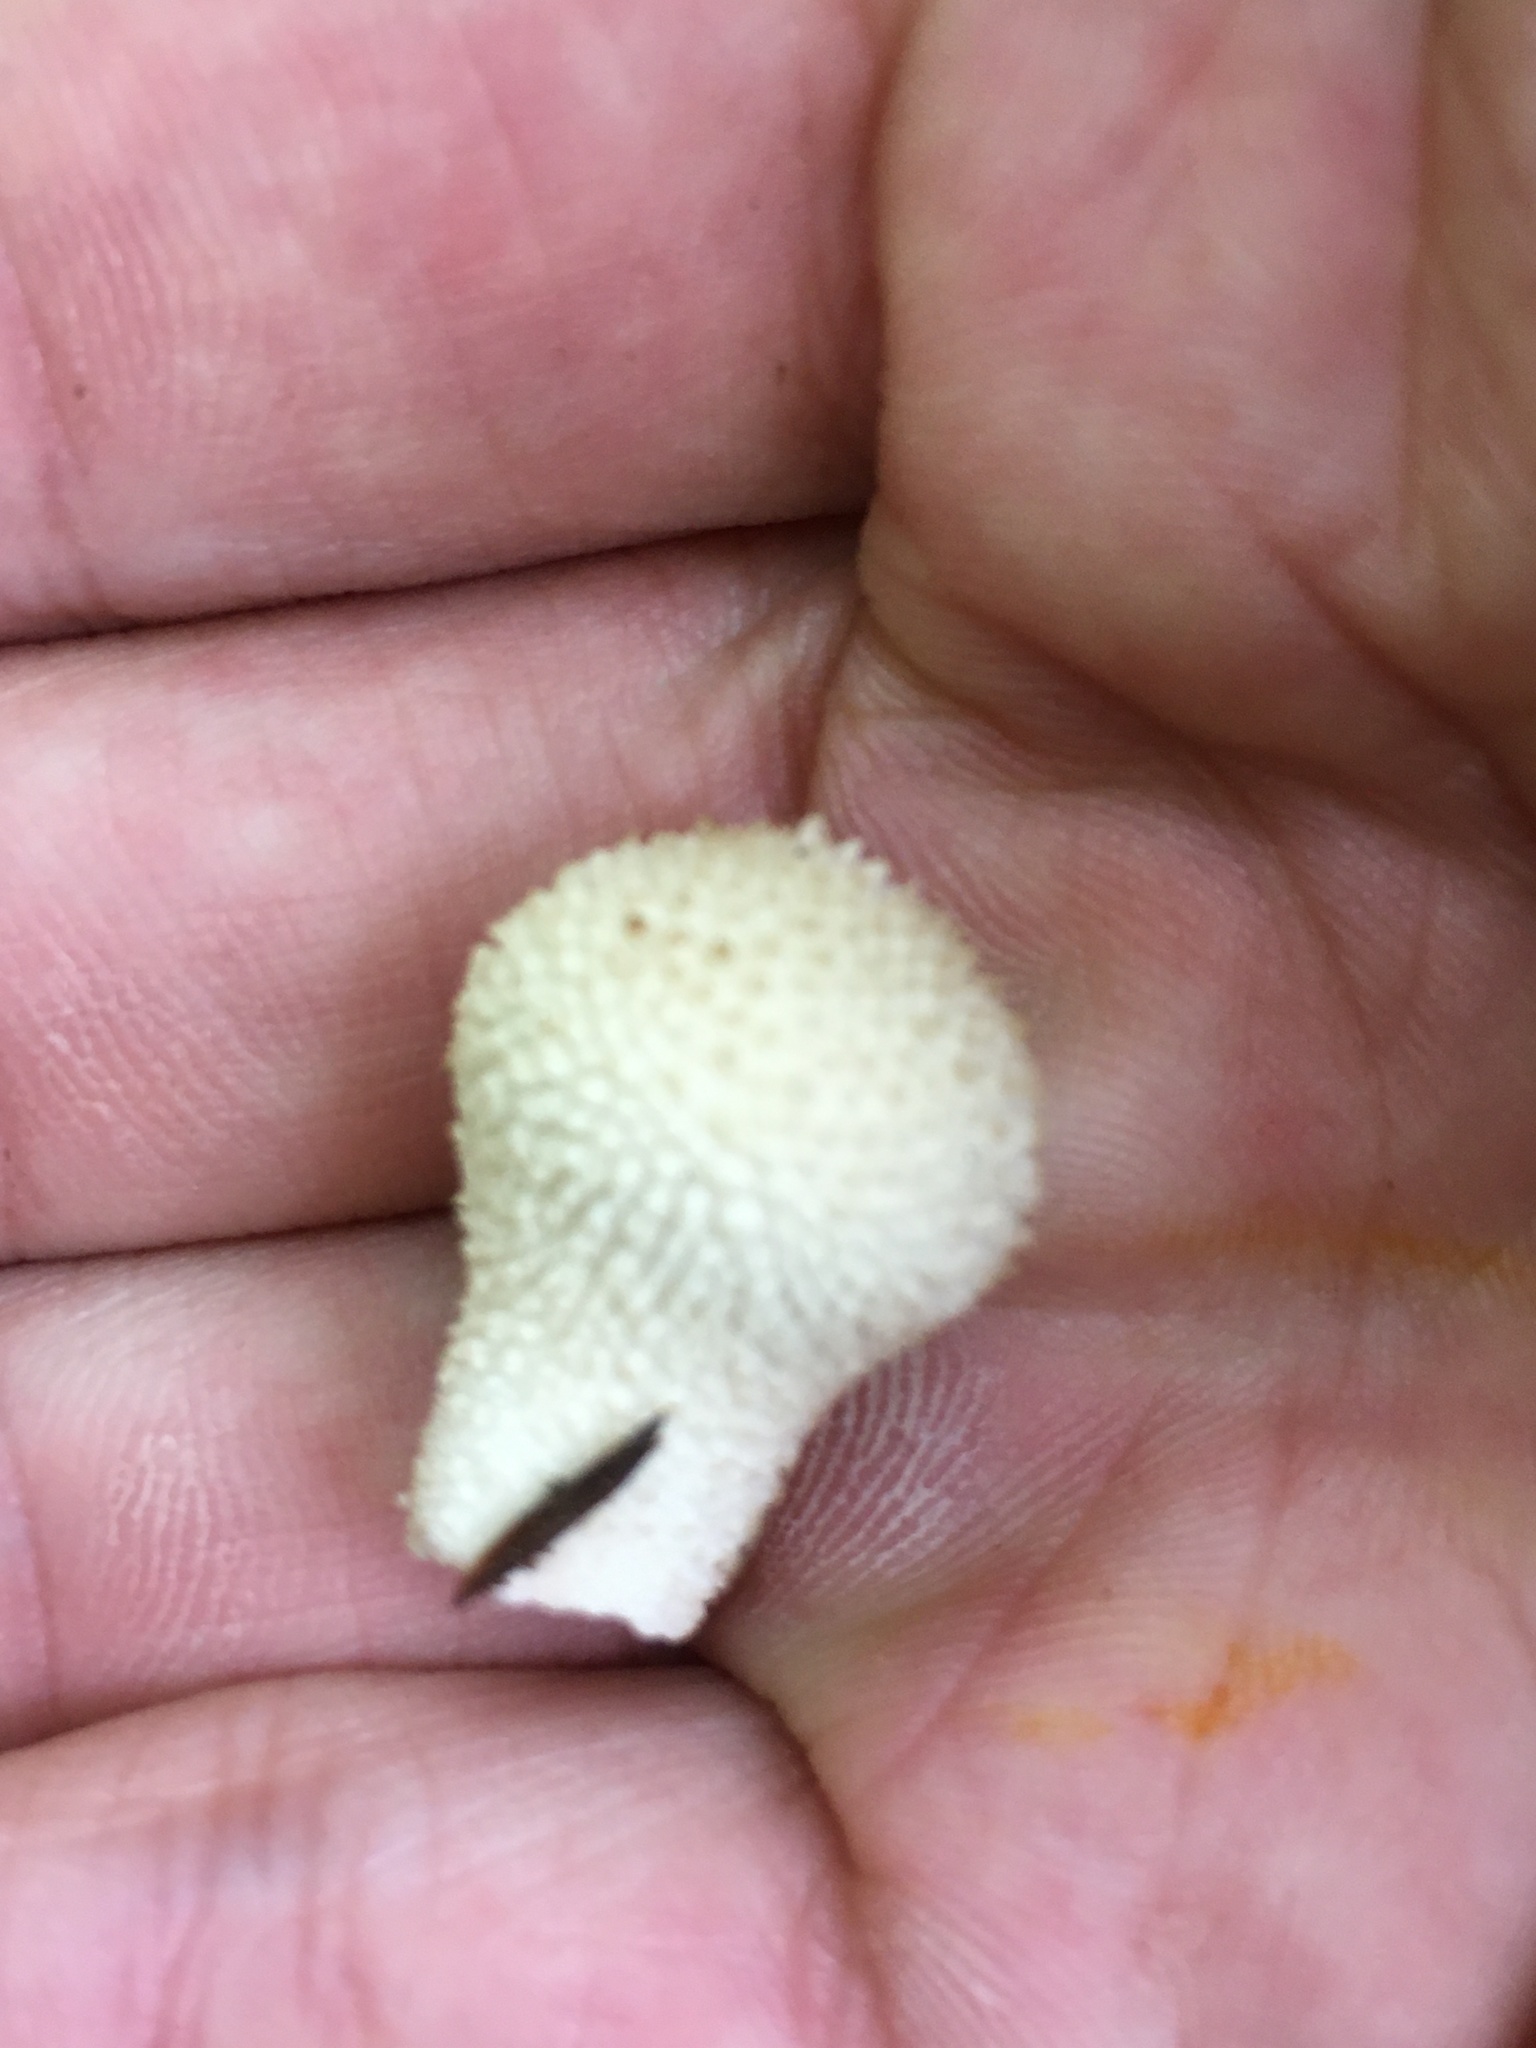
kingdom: Fungi
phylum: Basidiomycota
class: Agaricomycetes
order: Agaricales
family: Lycoperdaceae
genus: Lycoperdon
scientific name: Lycoperdon perlatum
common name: Common puffball
